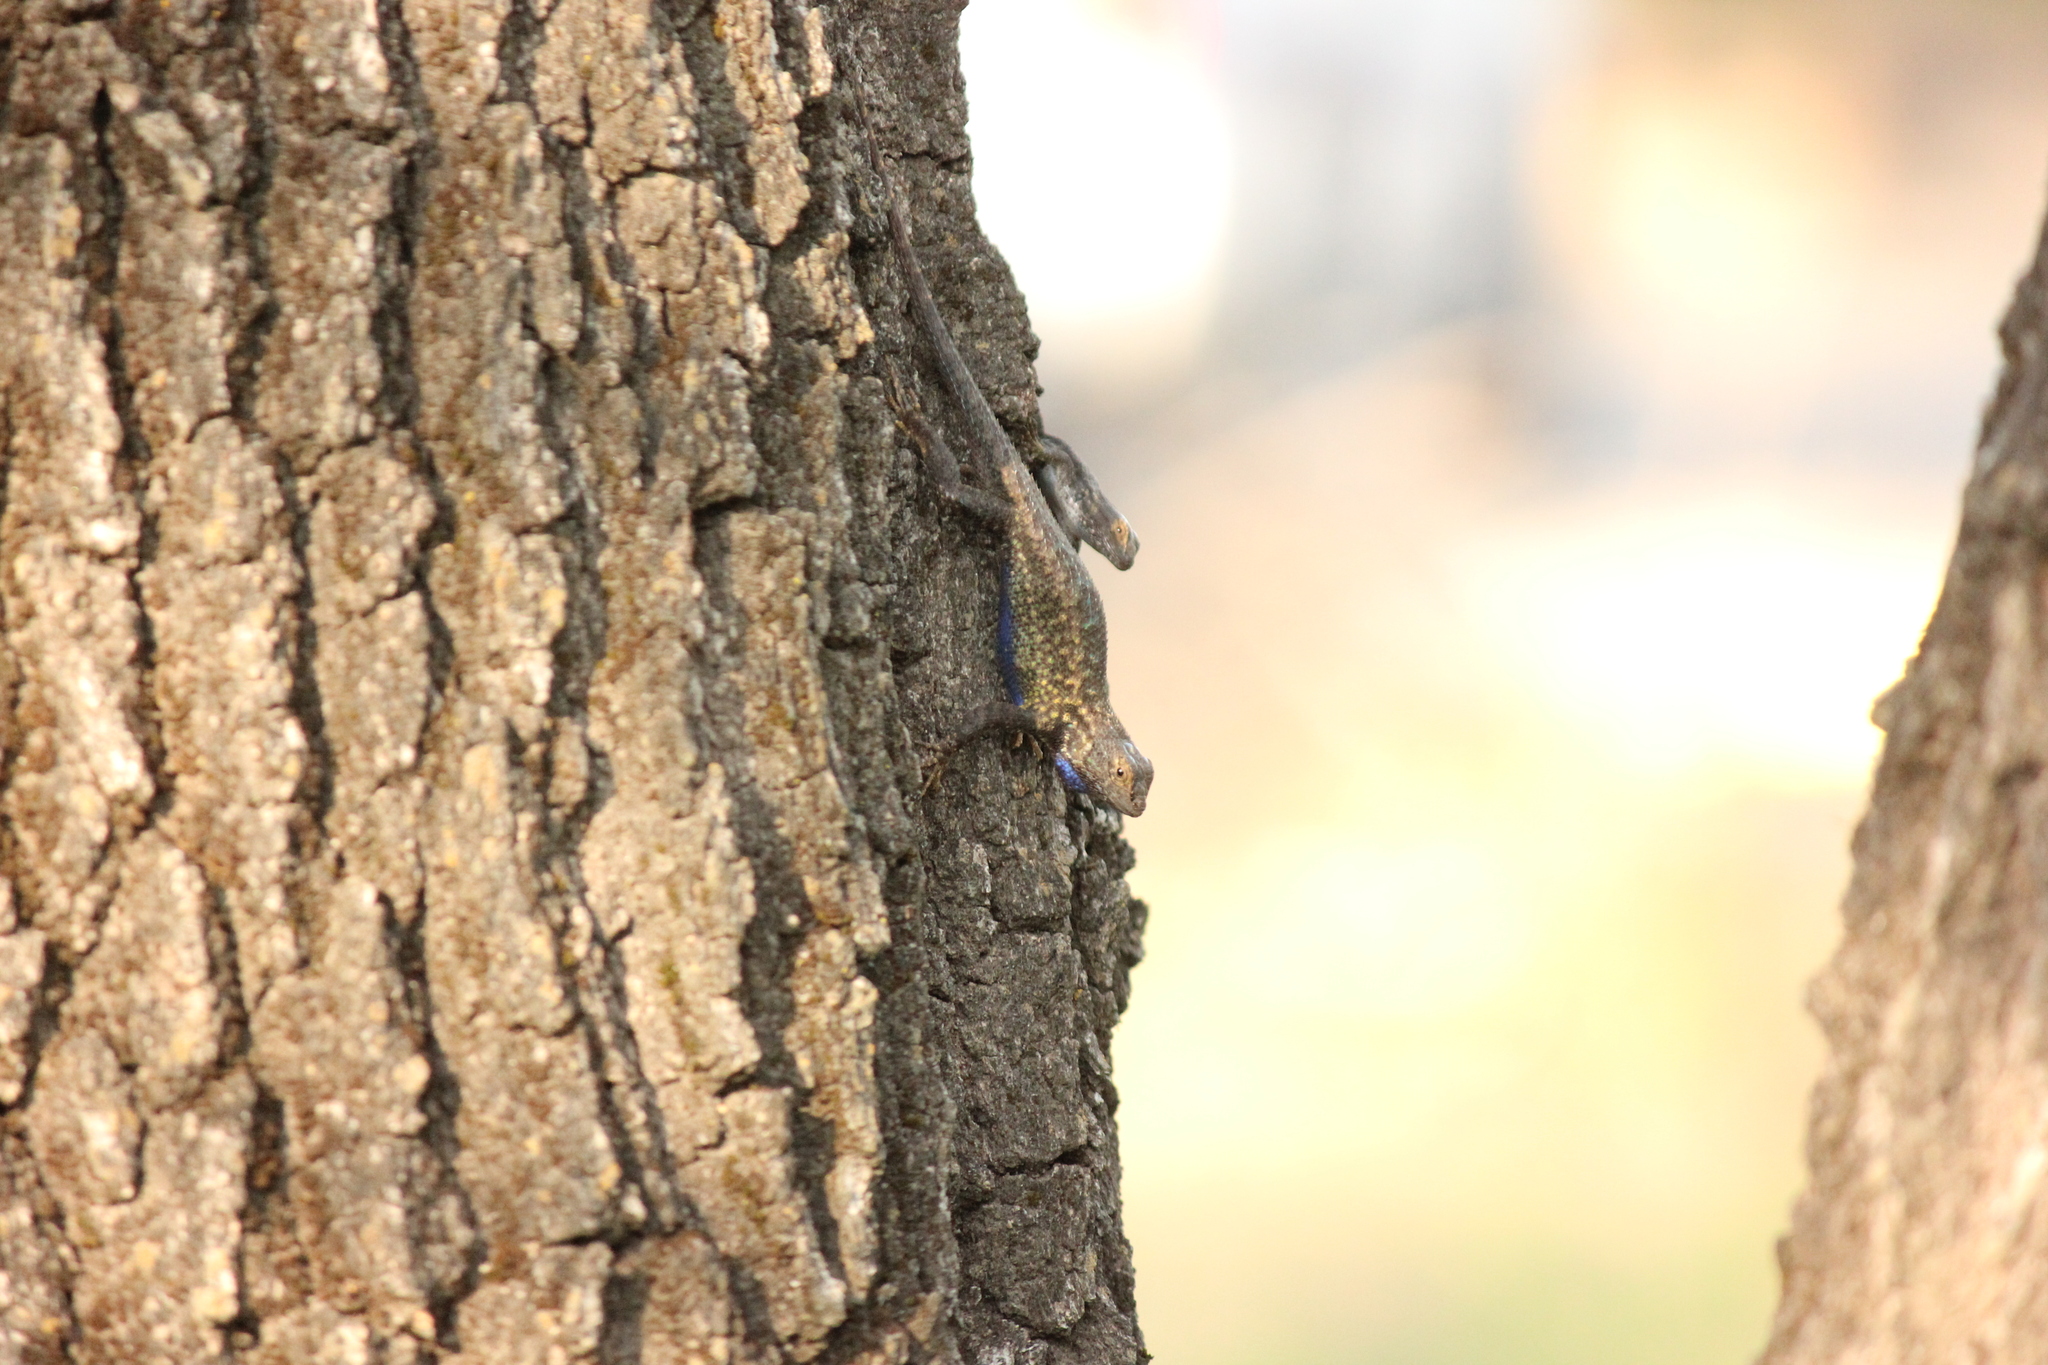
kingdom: Animalia
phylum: Chordata
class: Squamata
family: Phrynosomatidae
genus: Sceloporus
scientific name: Sceloporus occidentalis
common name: Western fence lizard
